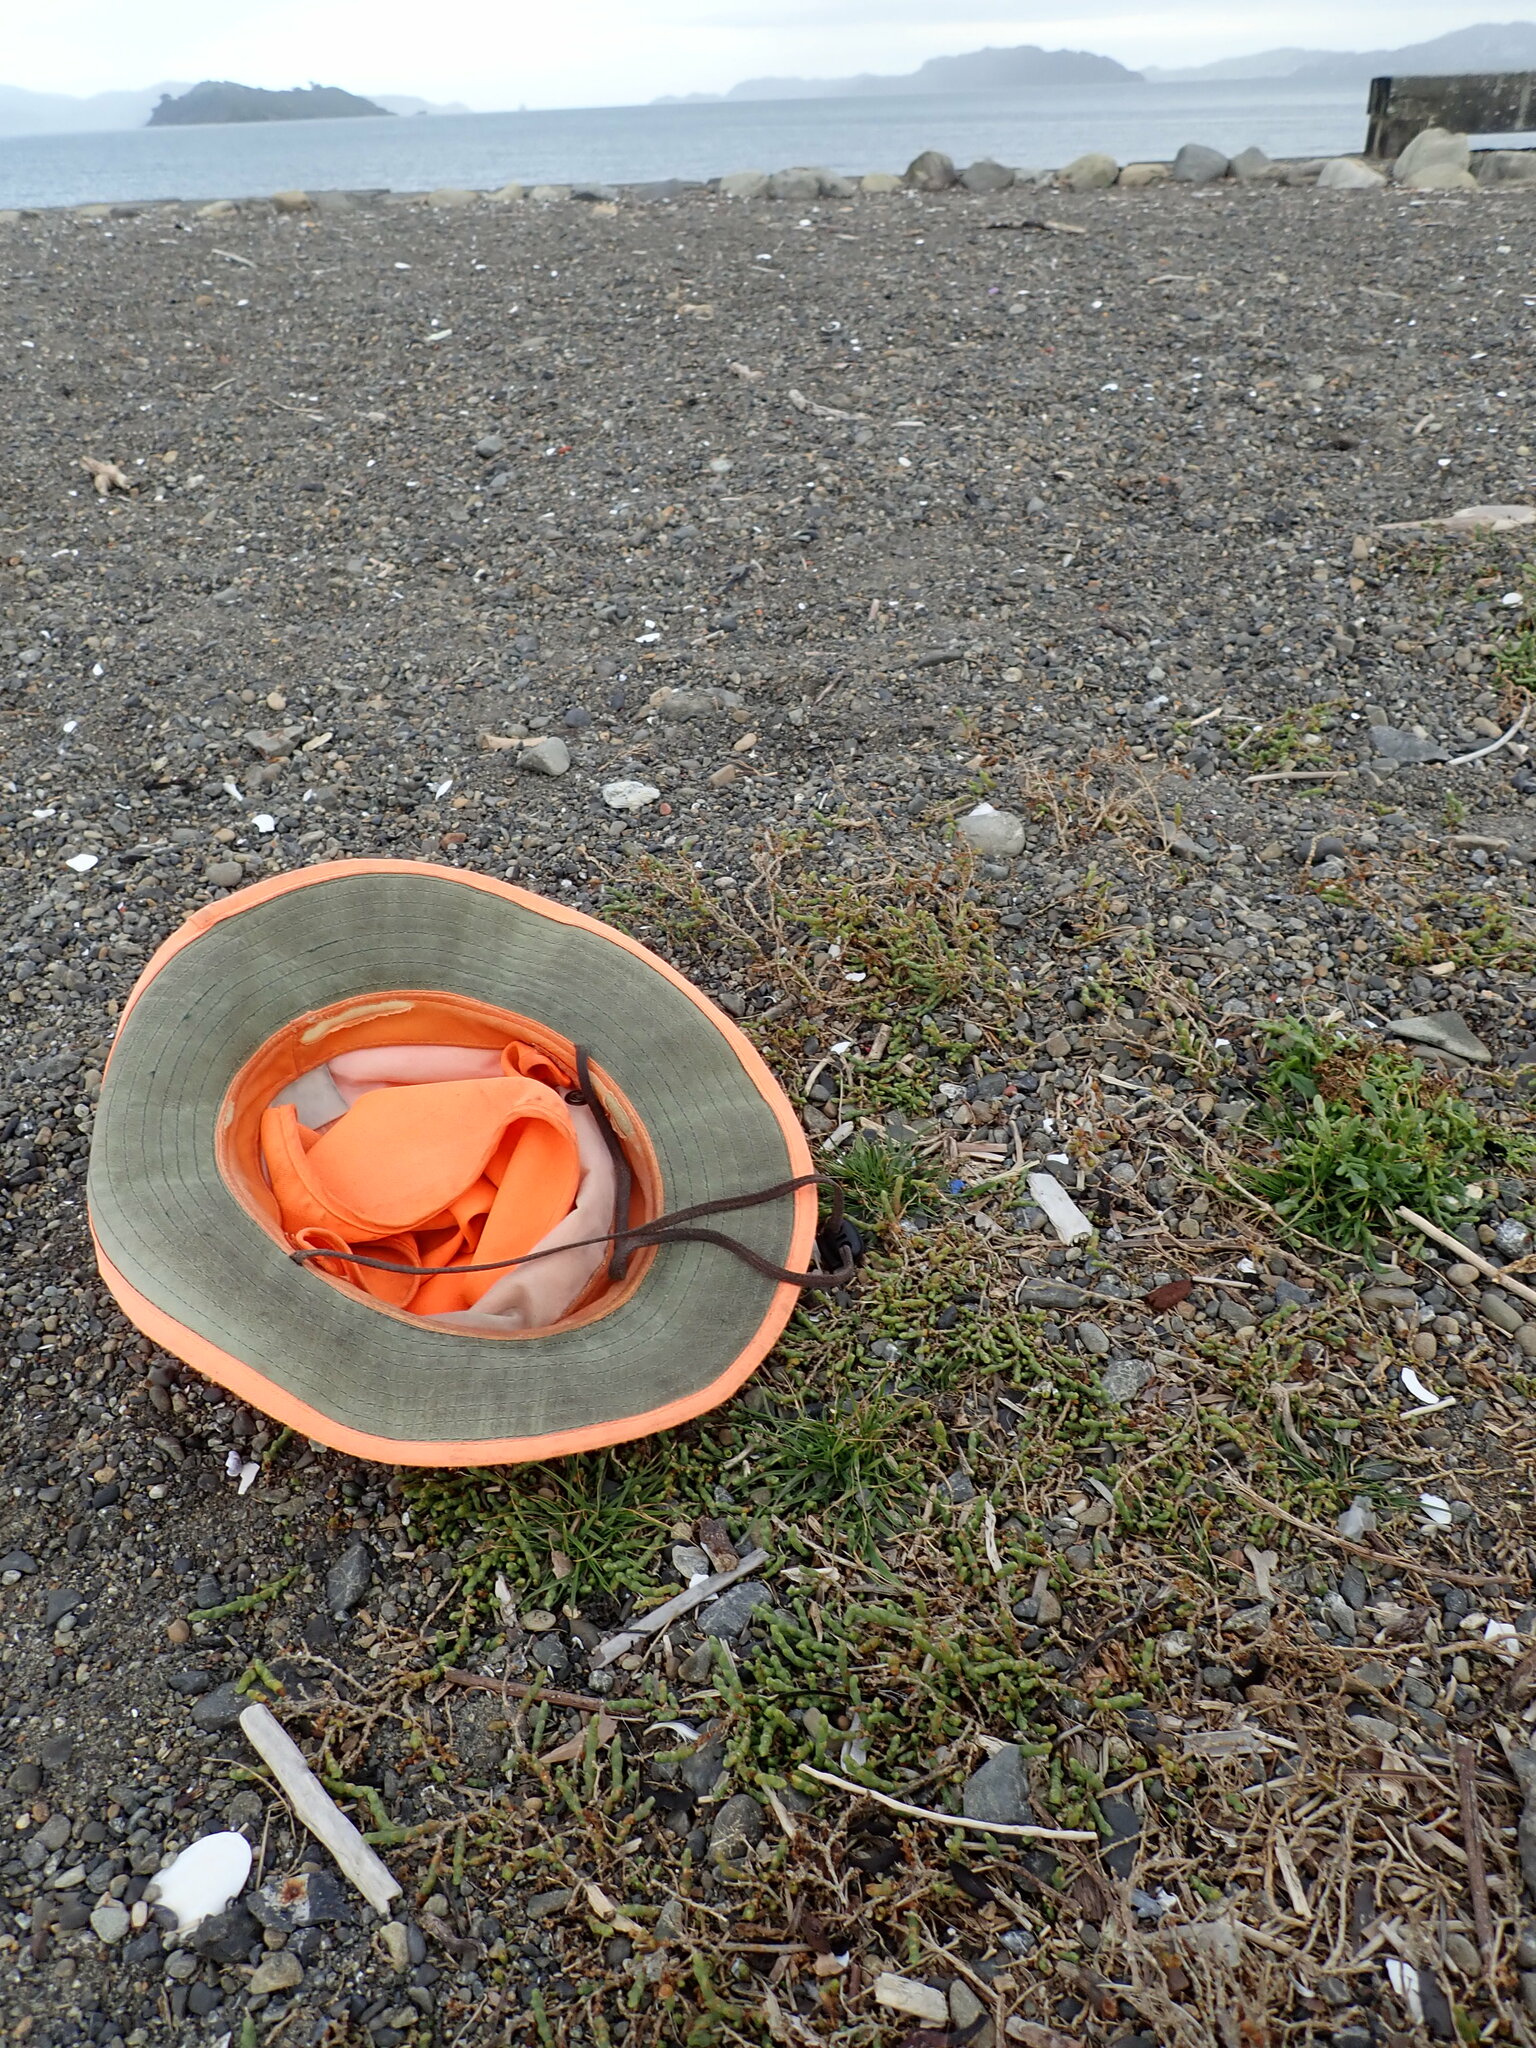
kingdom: Plantae
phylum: Tracheophyta
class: Magnoliopsida
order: Caryophyllales
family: Amaranthaceae
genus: Salicornia
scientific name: Salicornia quinqueflora
